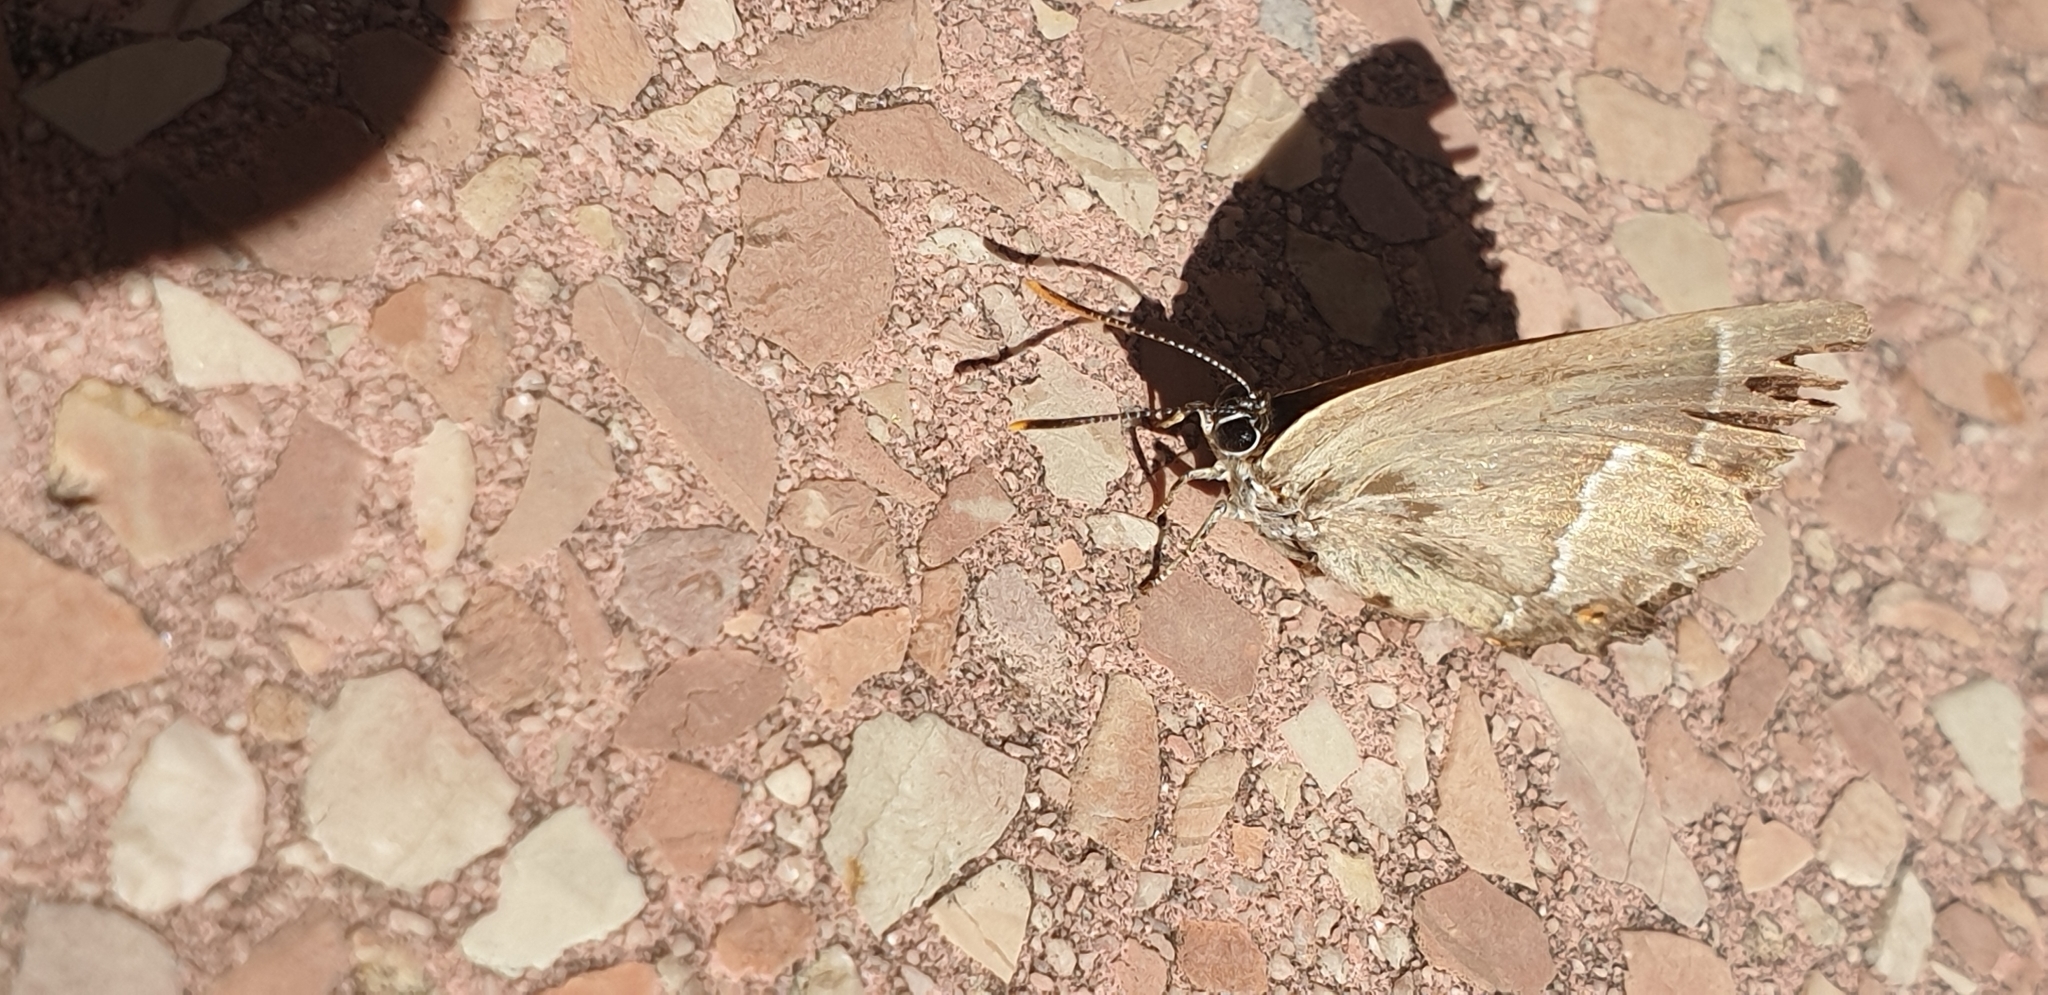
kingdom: Animalia
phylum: Arthropoda
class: Insecta
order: Lepidoptera
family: Lycaenidae
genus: Quercusia
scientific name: Quercusia quercus
